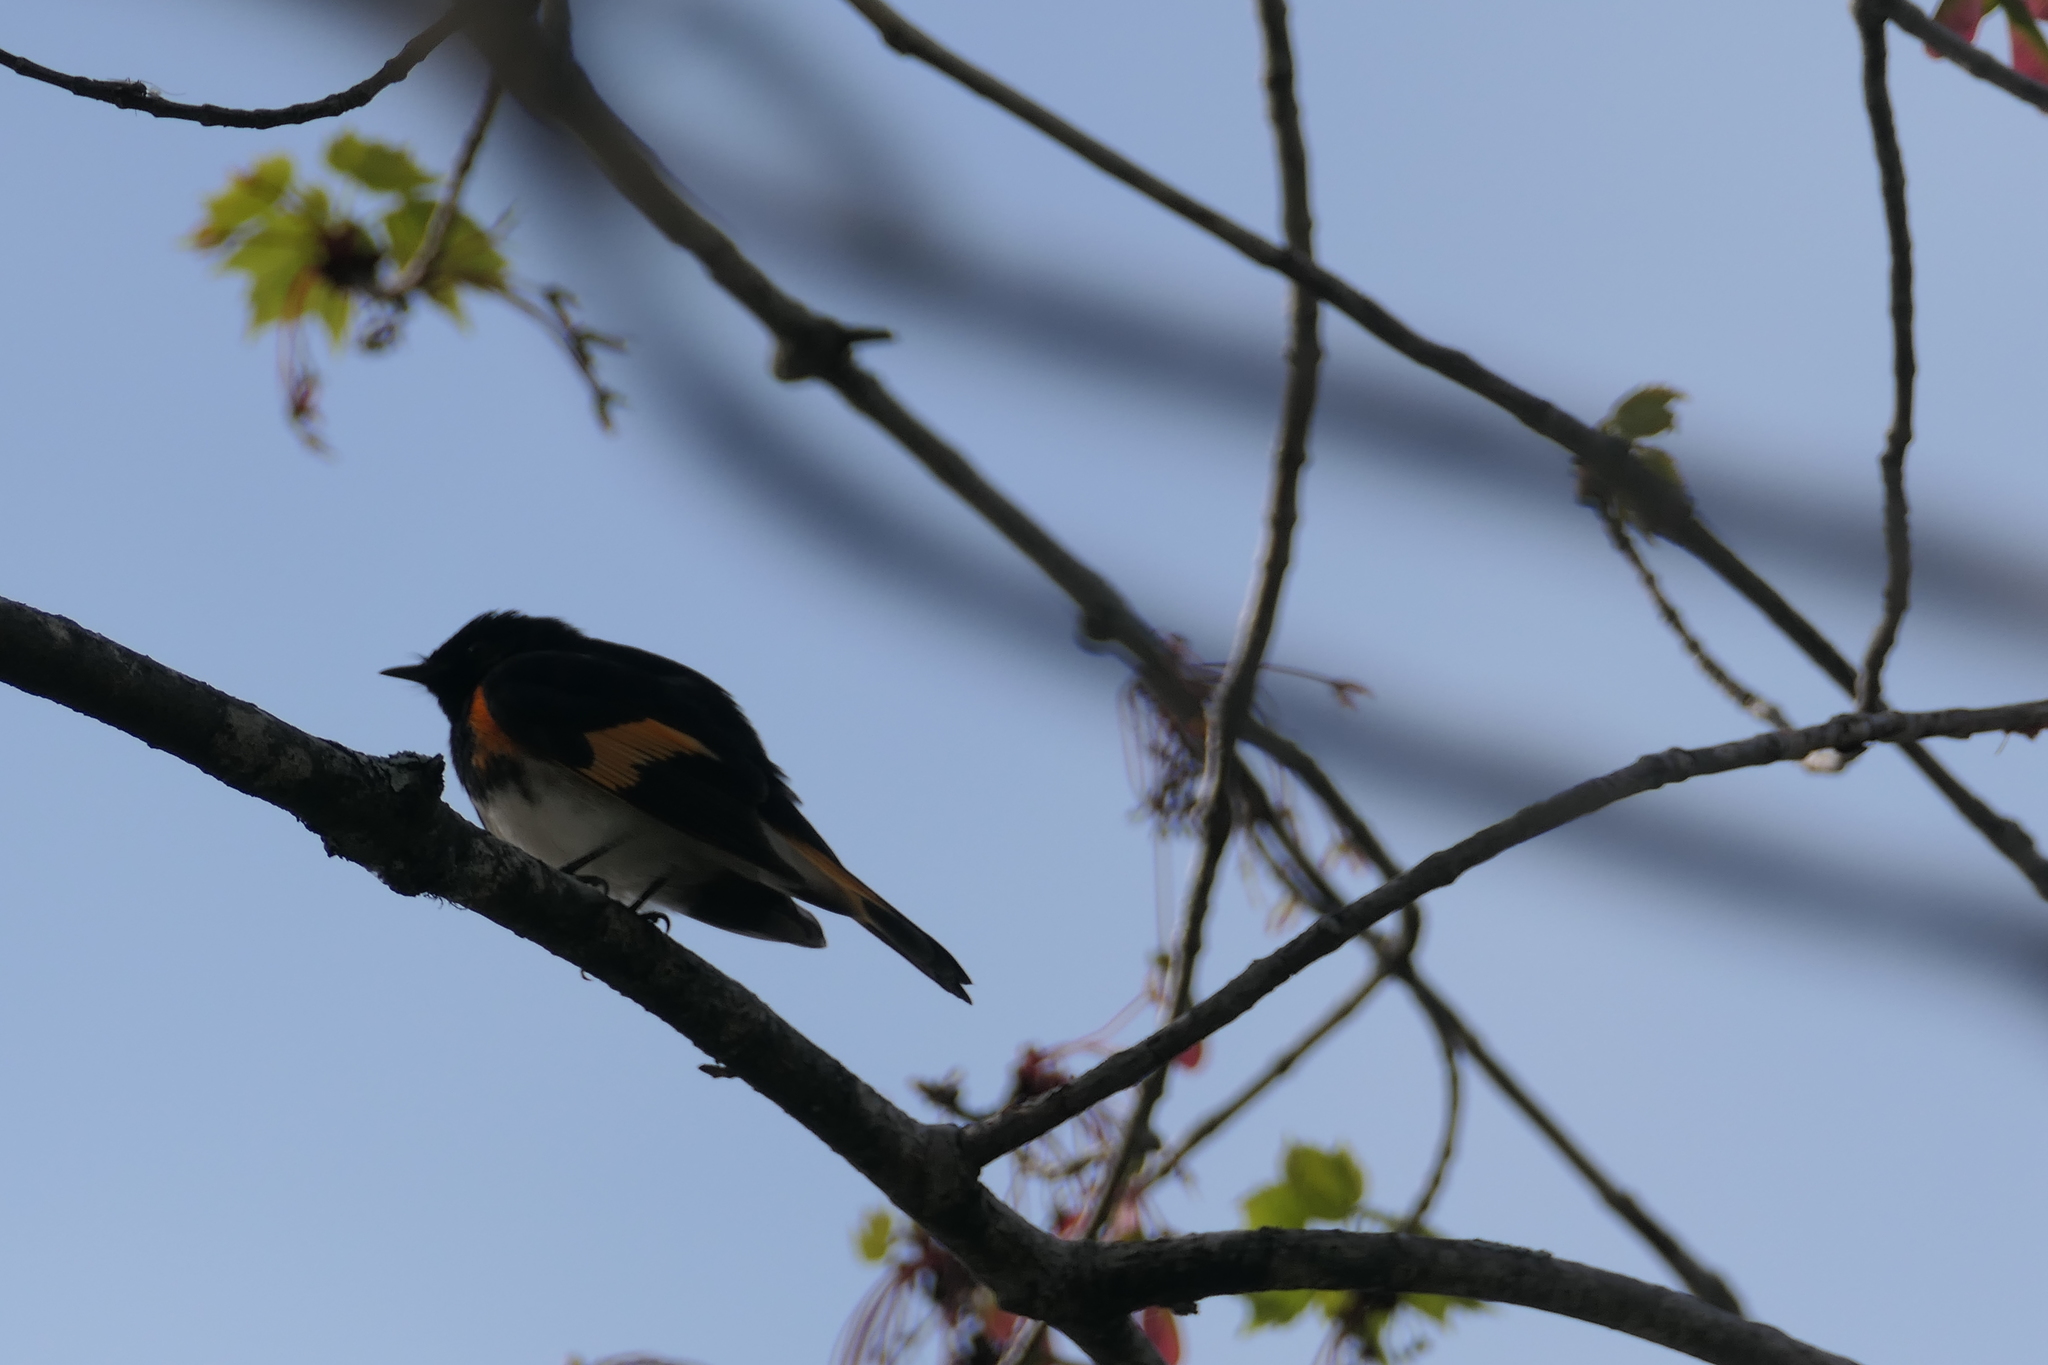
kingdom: Animalia
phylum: Chordata
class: Aves
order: Passeriformes
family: Parulidae
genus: Setophaga
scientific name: Setophaga ruticilla
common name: American redstart
